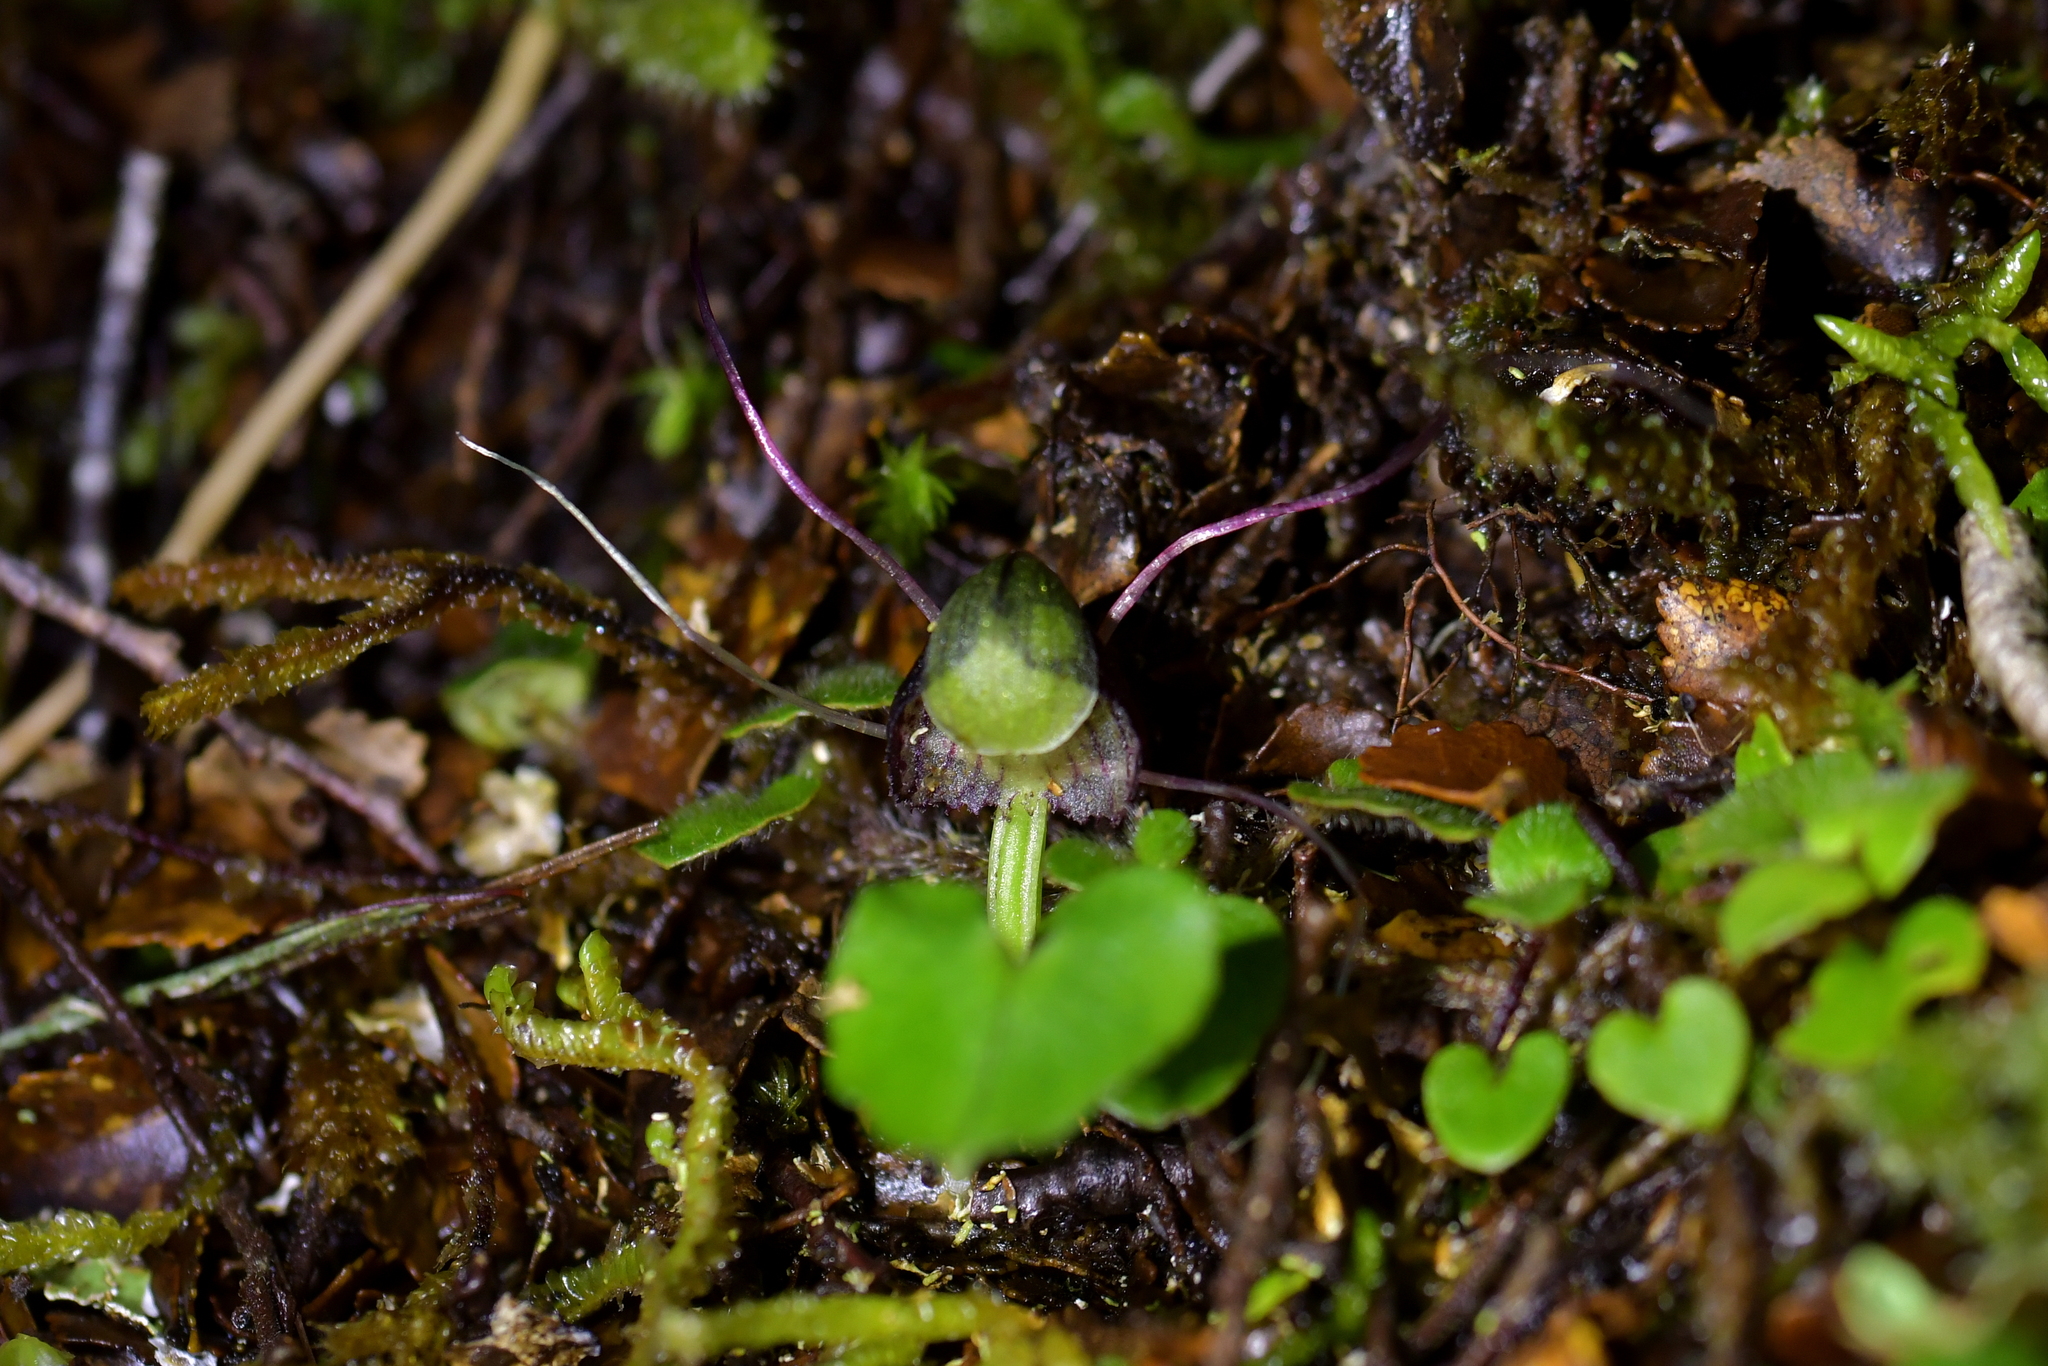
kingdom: Plantae
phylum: Tracheophyta
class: Liliopsida
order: Asparagales
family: Orchidaceae
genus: Corybas
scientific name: Corybas trilobus
